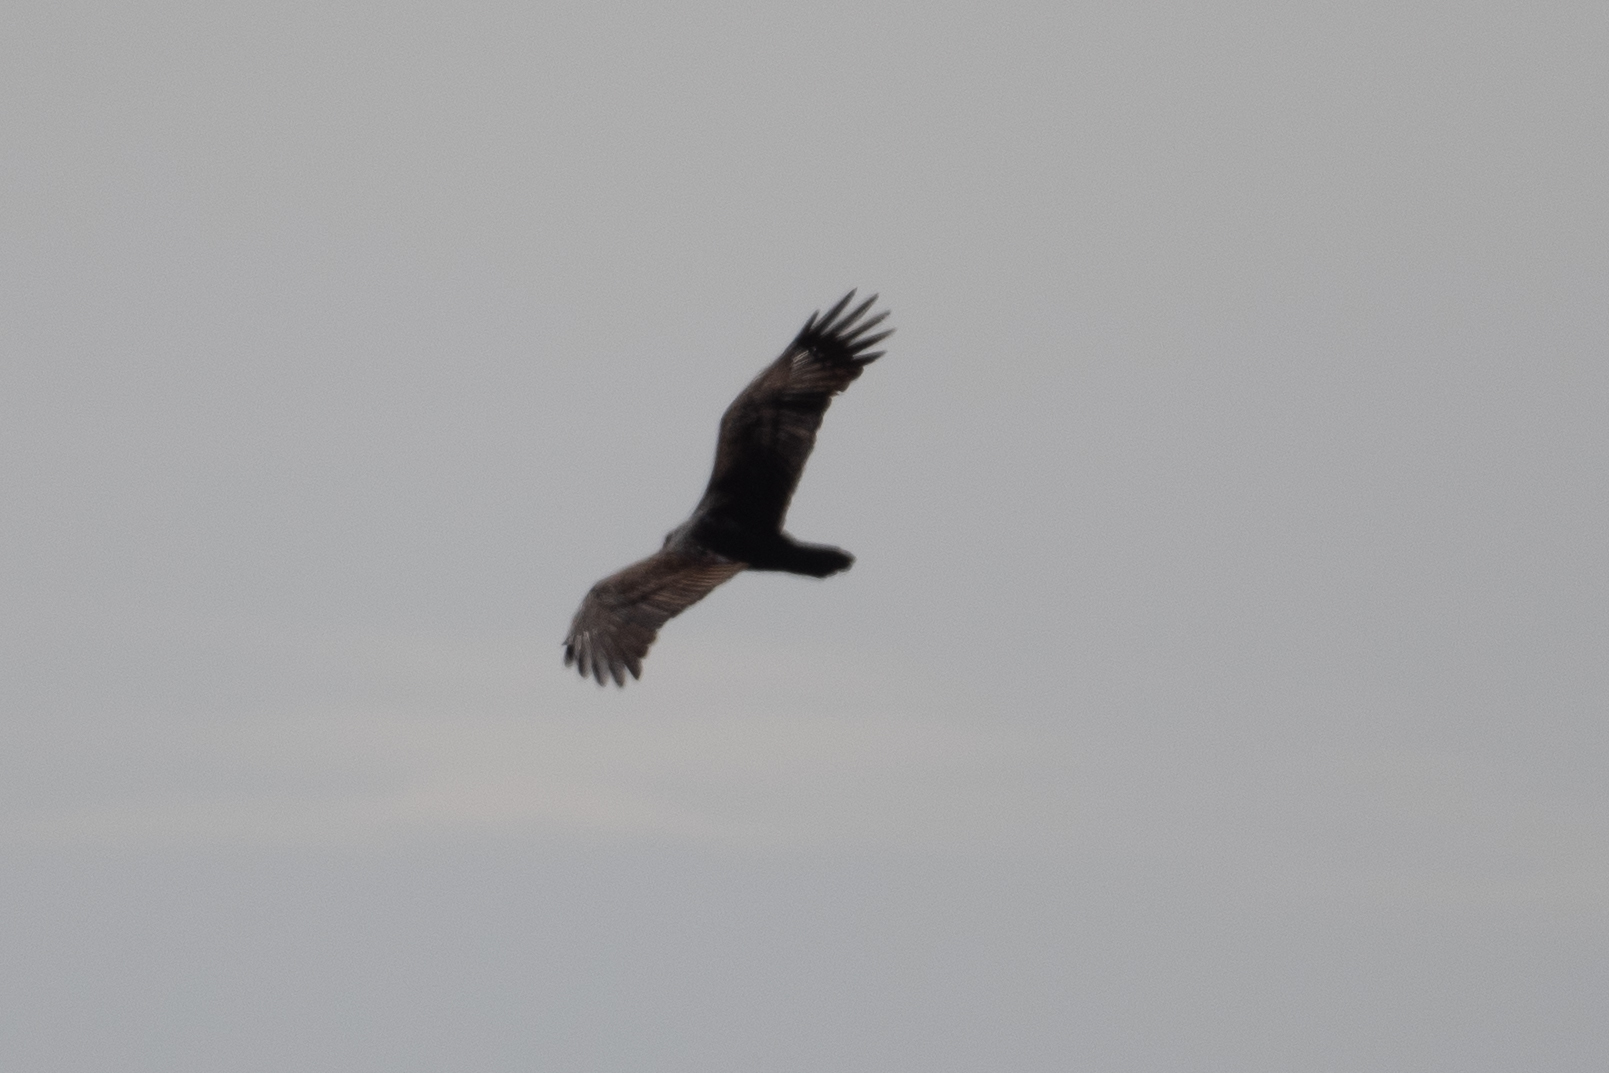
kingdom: Animalia
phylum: Chordata
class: Aves
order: Accipitriformes
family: Cathartidae
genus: Cathartes
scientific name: Cathartes aura
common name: Turkey vulture
